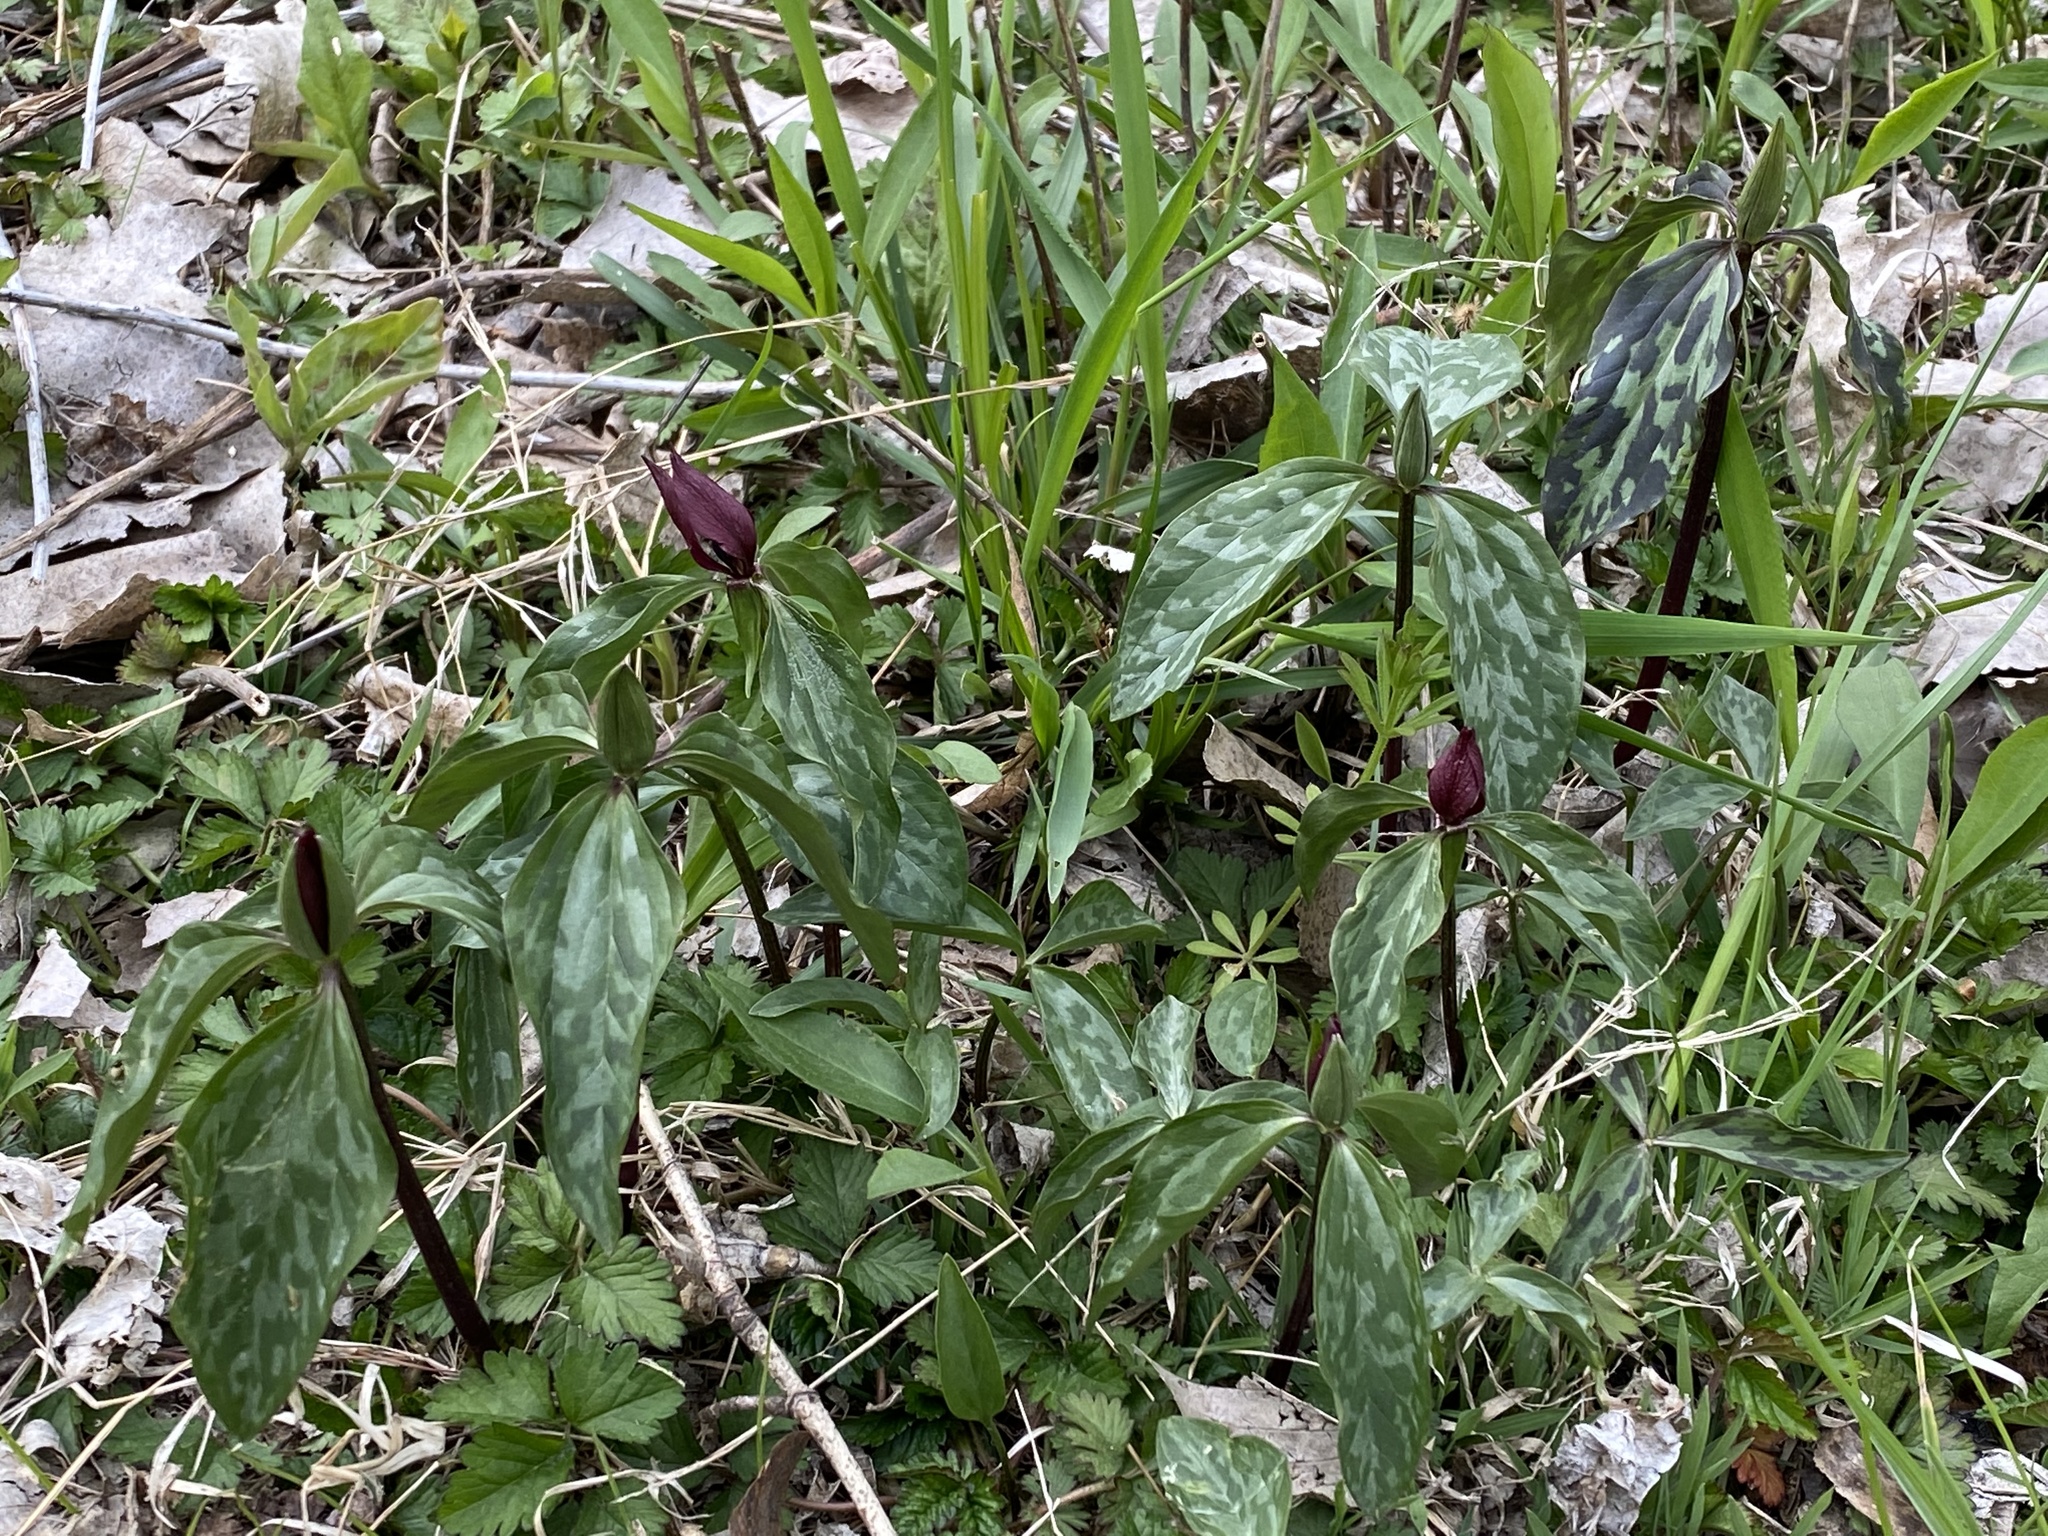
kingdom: Plantae
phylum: Tracheophyta
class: Liliopsida
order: Liliales
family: Melanthiaceae
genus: Trillium
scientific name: Trillium recurvatum
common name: Bloody butcher
